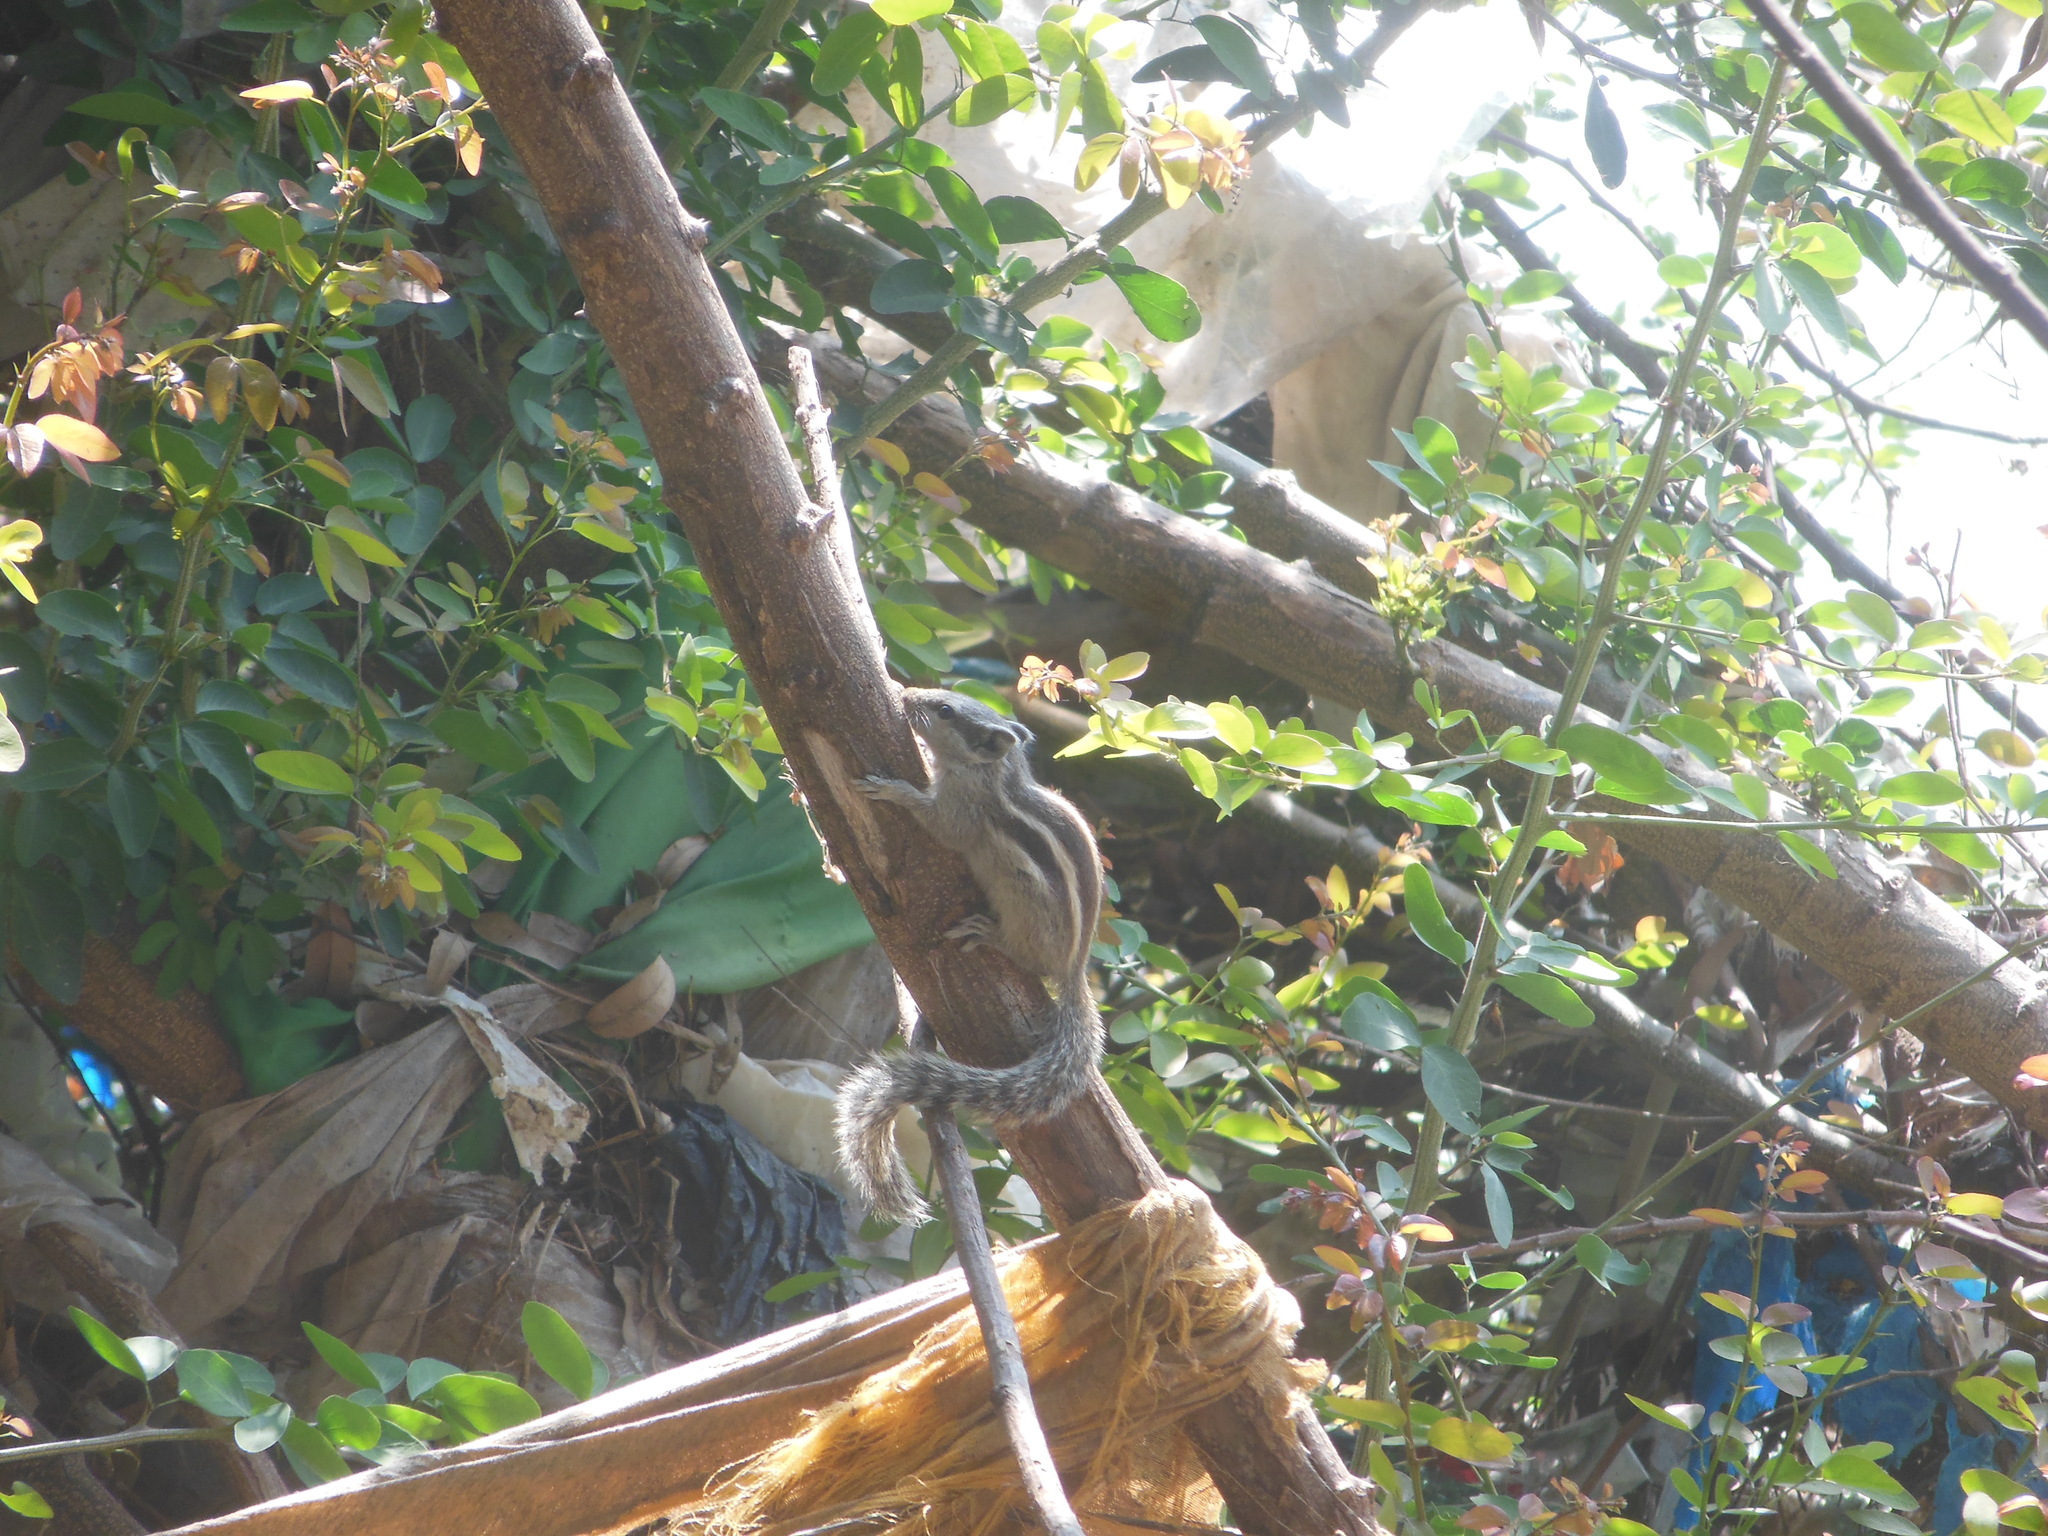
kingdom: Animalia
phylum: Chordata
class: Mammalia
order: Rodentia
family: Sciuridae
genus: Funambulus
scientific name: Funambulus pennantii
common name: Northern palm squirrel
